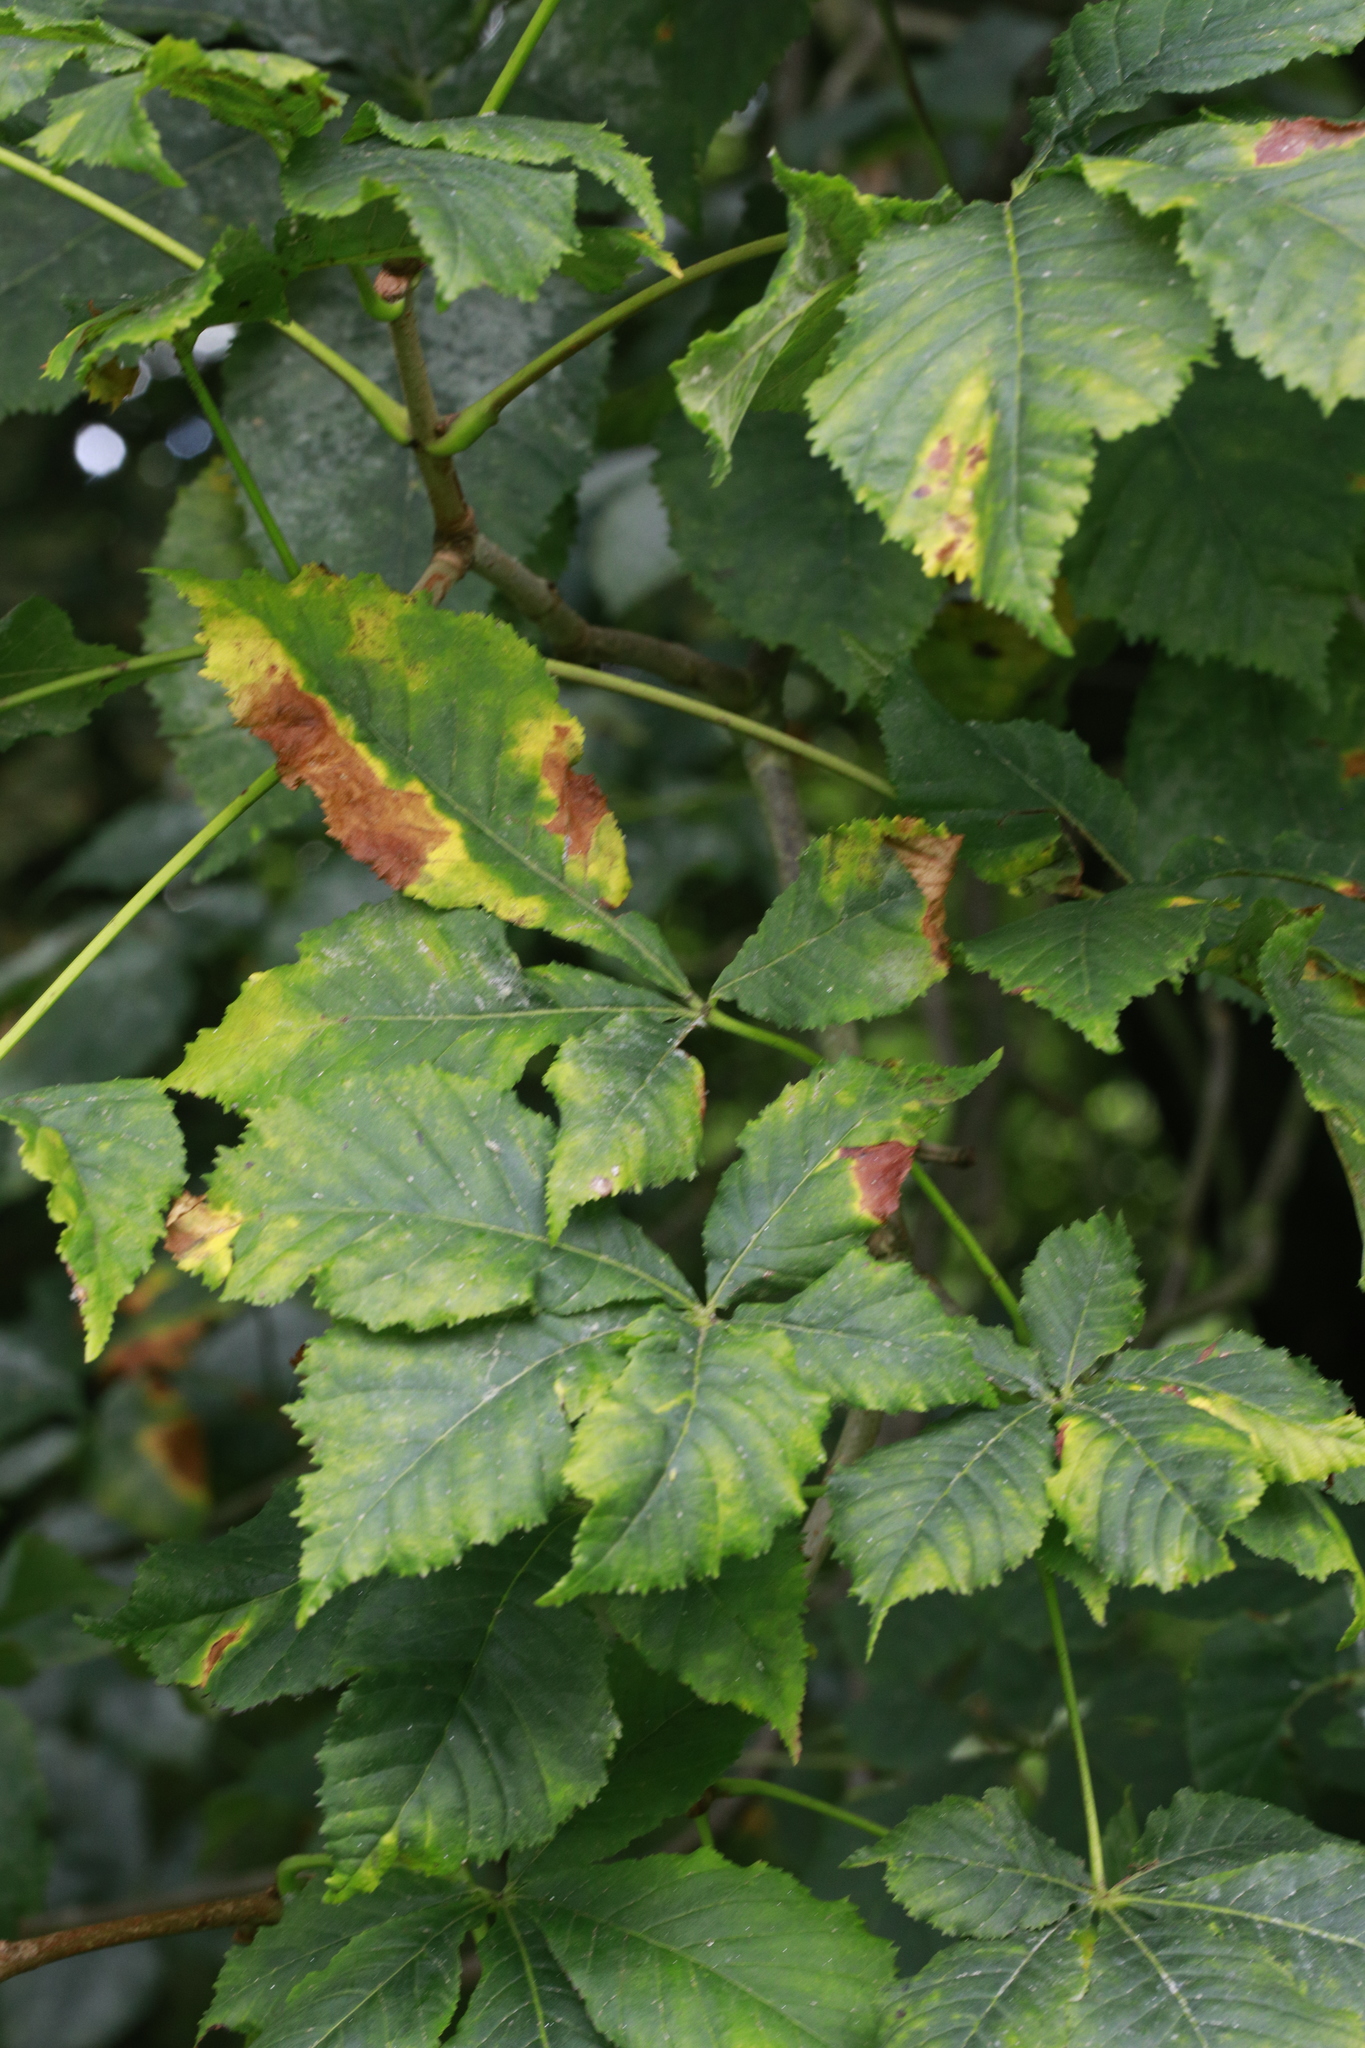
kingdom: Fungi
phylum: Ascomycota
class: Dothideomycetes
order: Botryosphaeriales
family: Phyllostictaceae
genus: Phyllosticta
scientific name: Phyllosticta paviae
